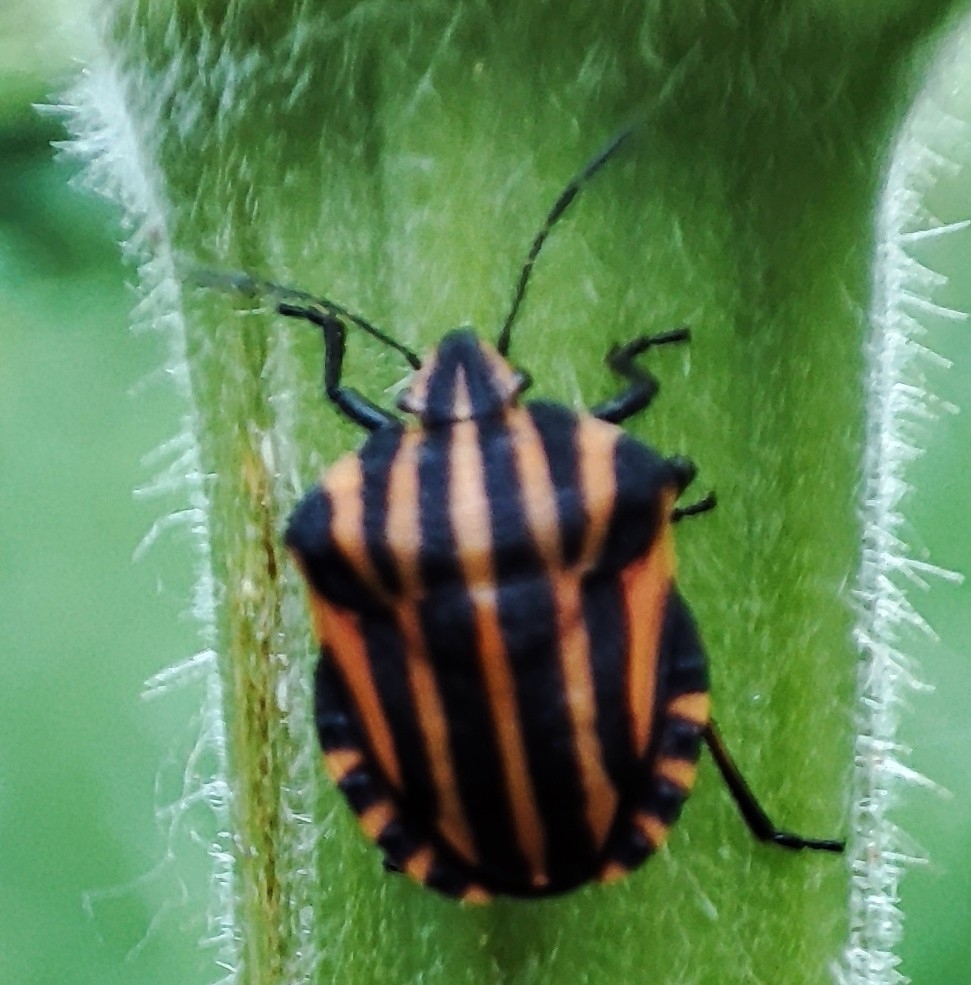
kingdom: Animalia
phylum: Arthropoda
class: Insecta
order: Hemiptera
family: Pentatomidae
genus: Graphosoma
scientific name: Graphosoma italicum
